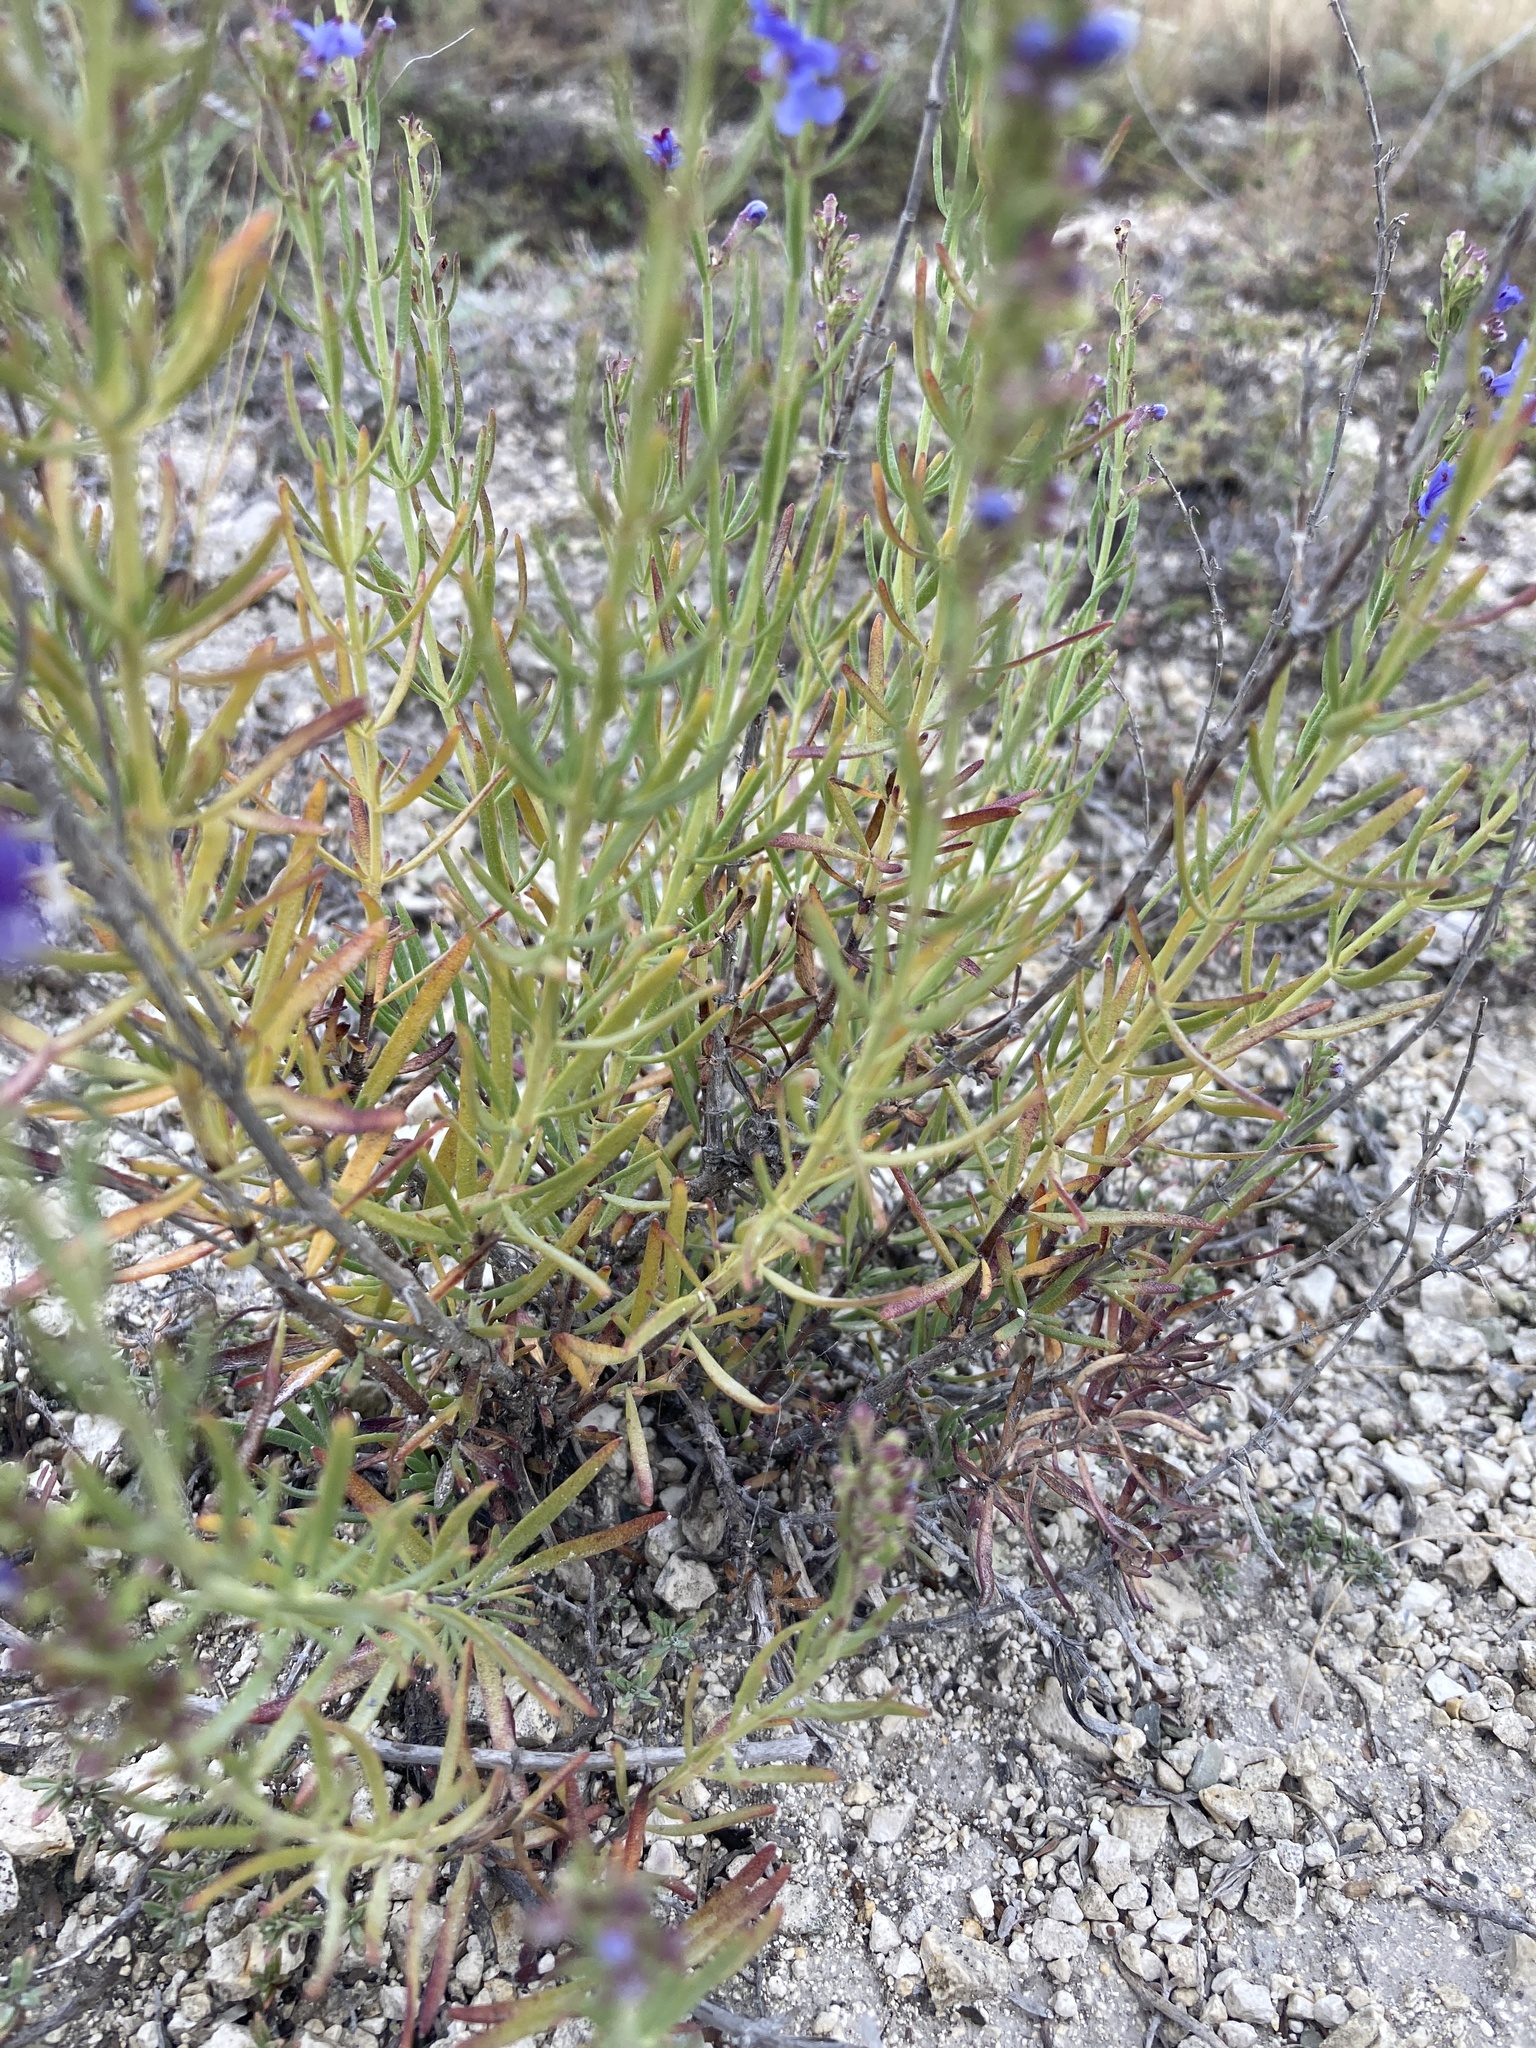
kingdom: Plantae
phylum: Tracheophyta
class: Magnoliopsida
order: Lamiales
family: Lamiaceae
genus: Hyssopus
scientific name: Hyssopus officinalis
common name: Hyssop
